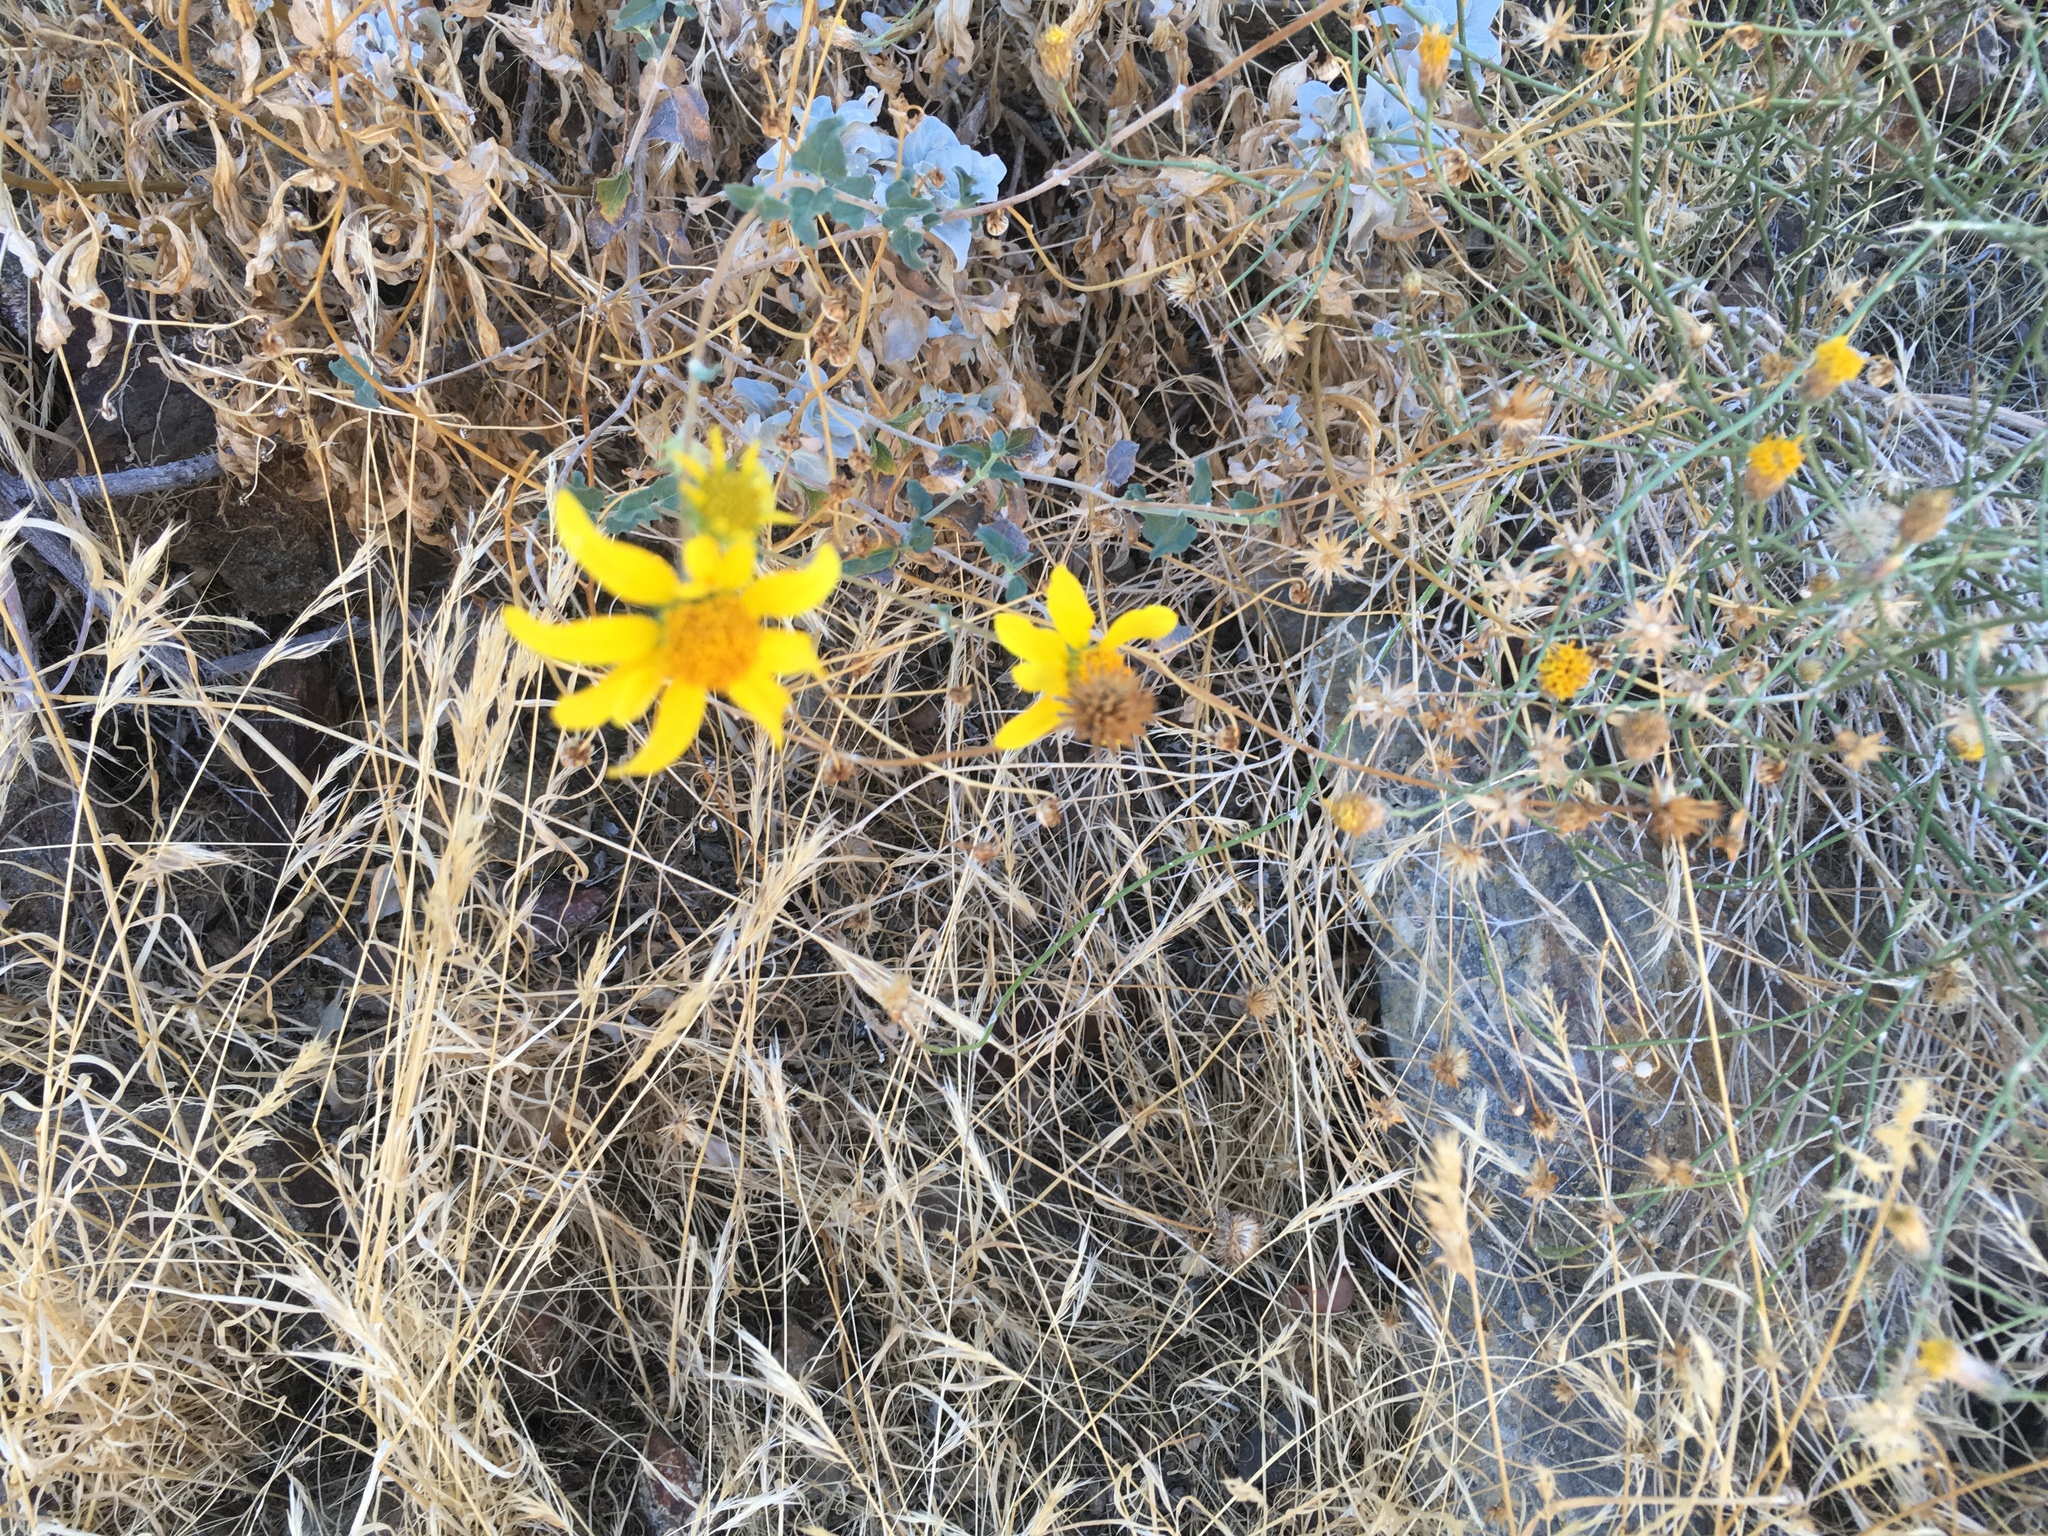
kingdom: Plantae
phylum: Tracheophyta
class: Magnoliopsida
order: Asterales
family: Asteraceae
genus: Bahiopsis
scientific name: Bahiopsis parishii
